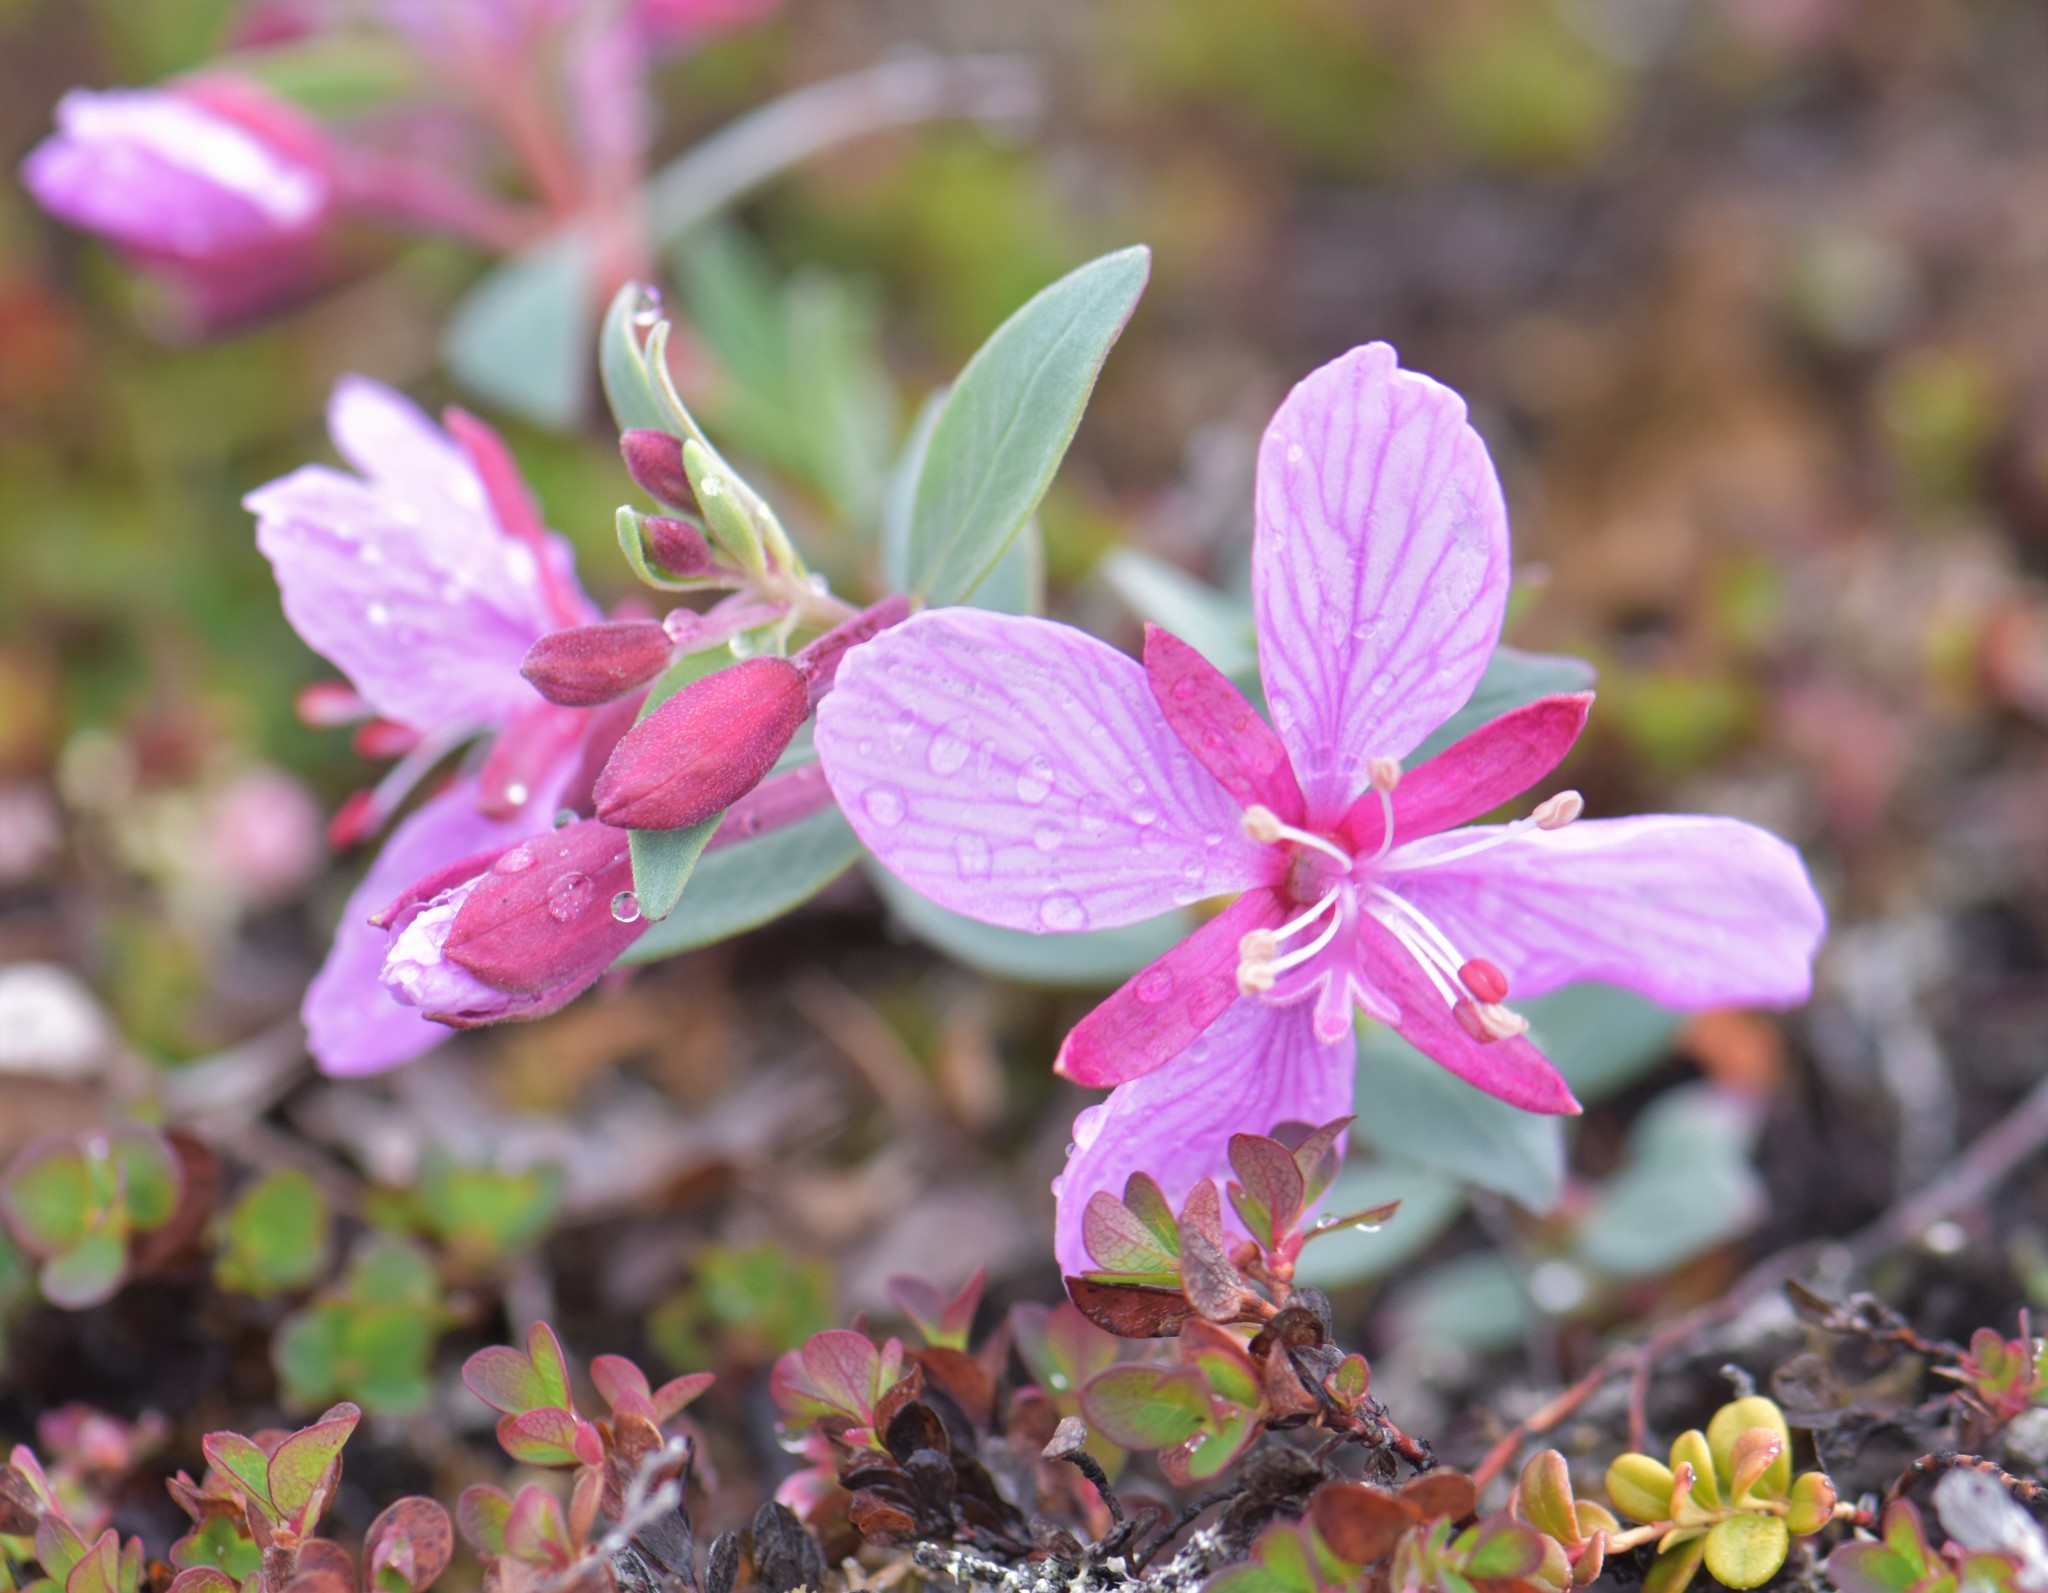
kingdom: Plantae
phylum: Tracheophyta
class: Magnoliopsida
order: Myrtales
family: Onagraceae
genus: Chamaenerion
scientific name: Chamaenerion latifolium
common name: Dwarf fireweed
